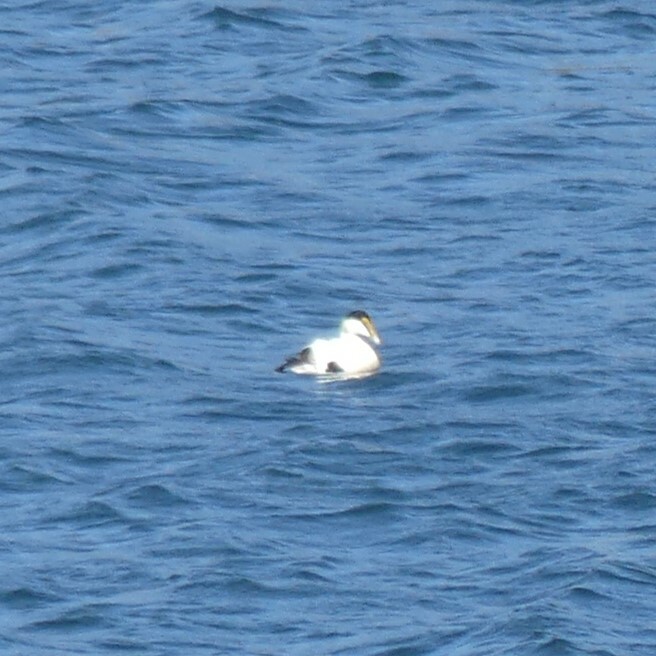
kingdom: Animalia
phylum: Chordata
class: Aves
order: Anseriformes
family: Anatidae
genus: Somateria
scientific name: Somateria mollissima
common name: Common eider
